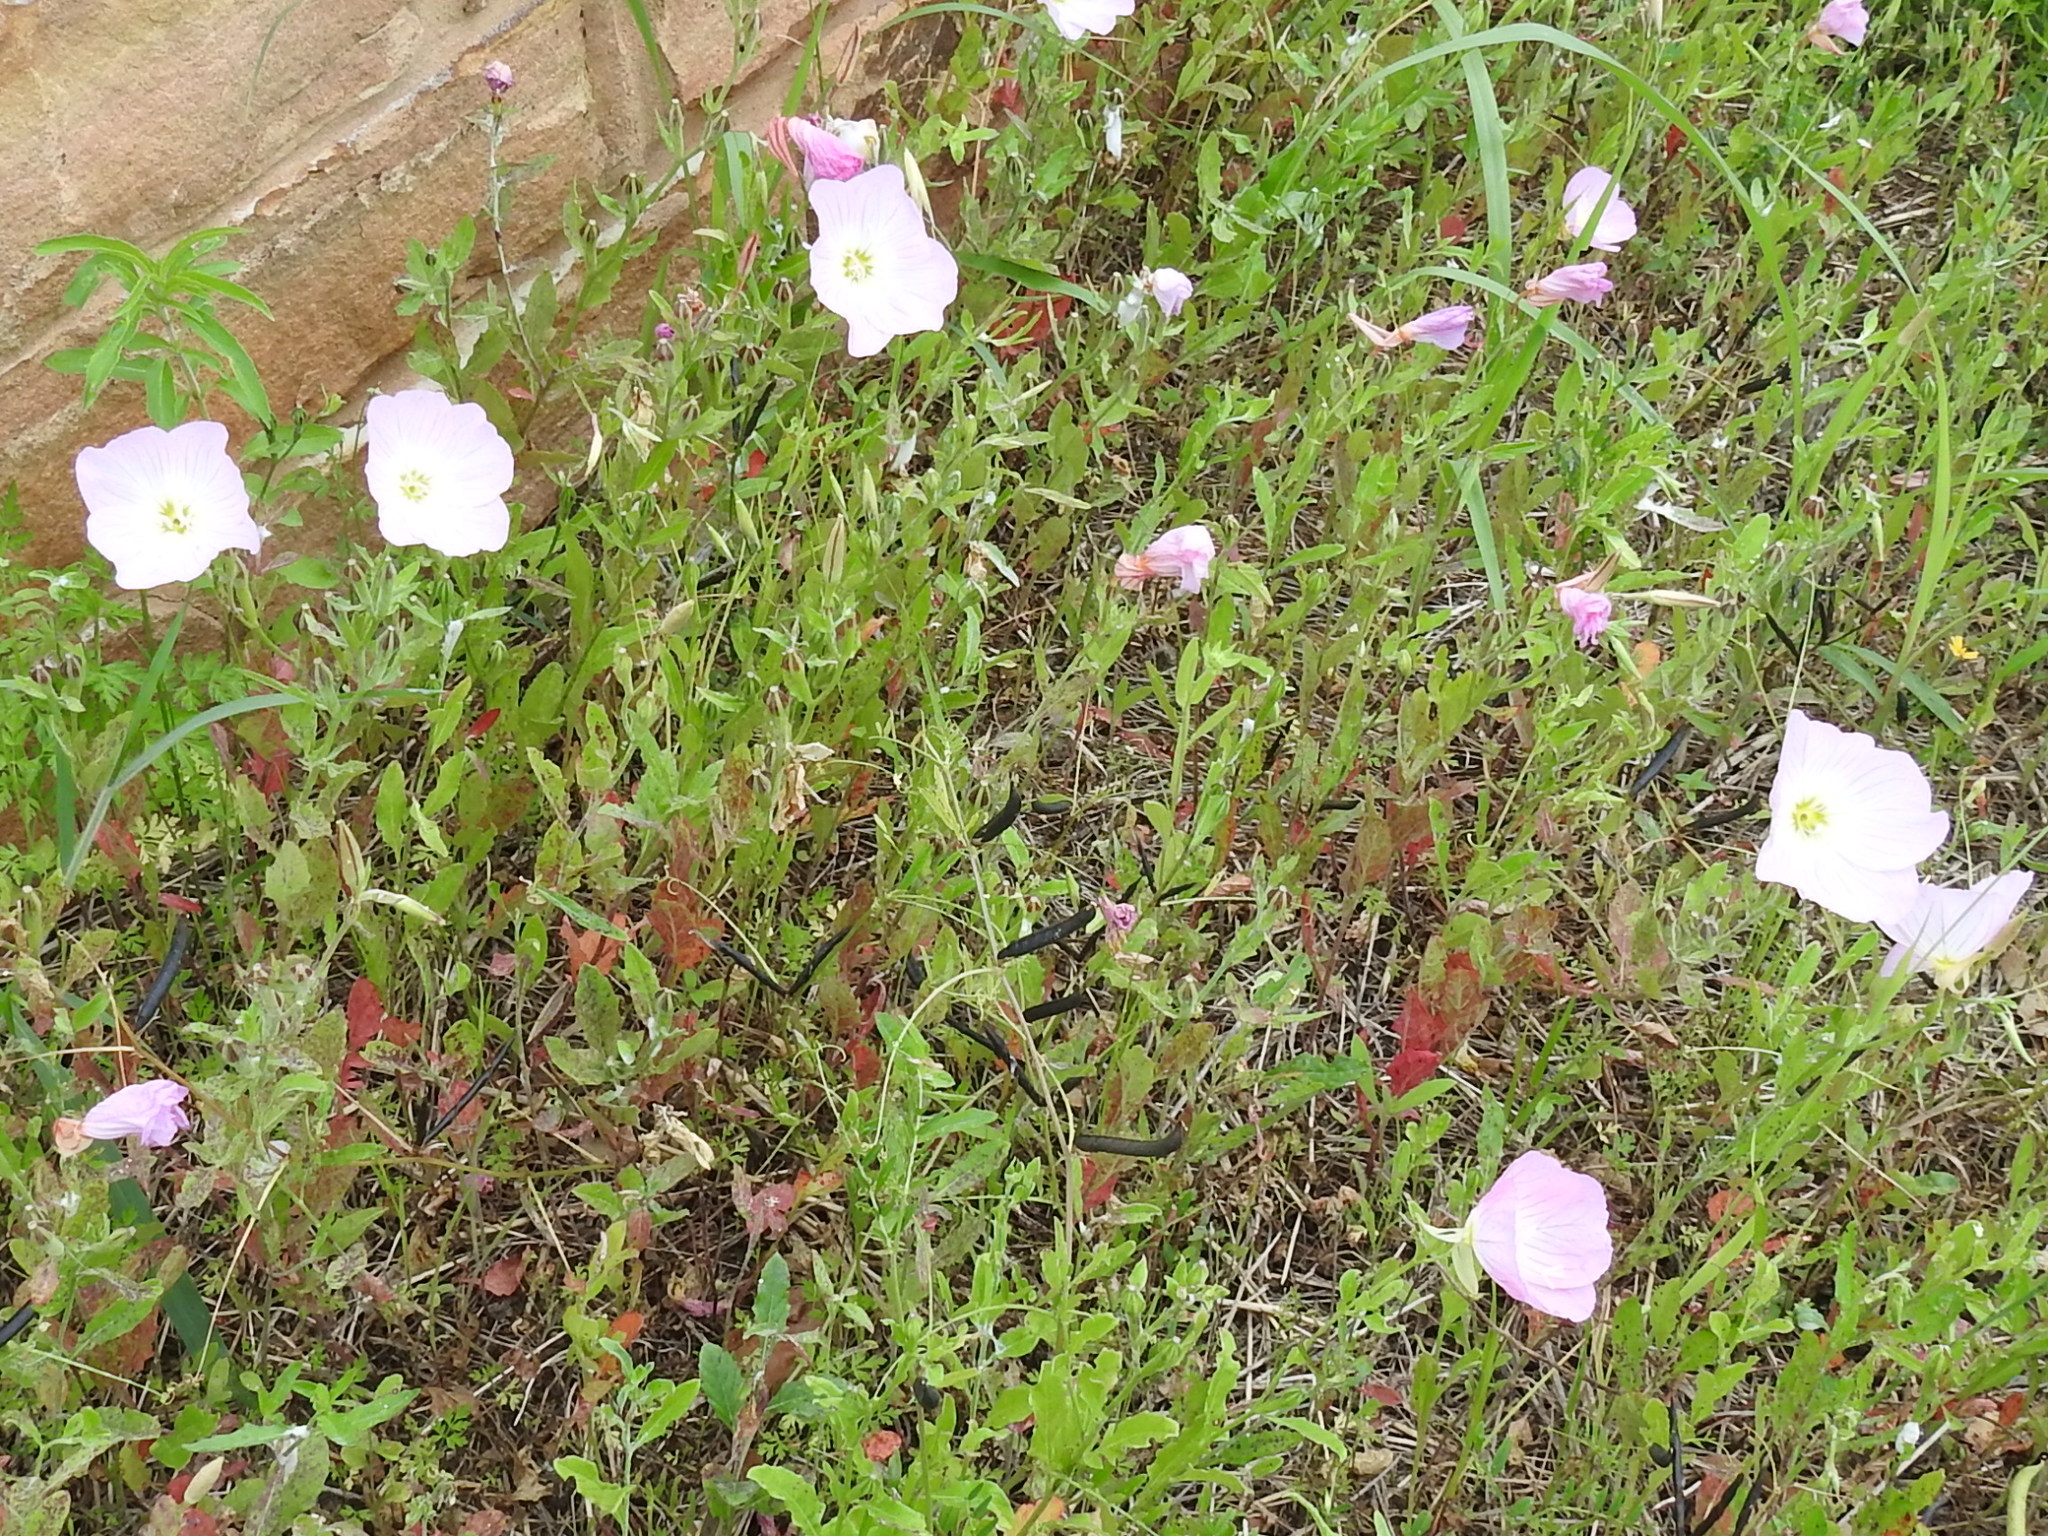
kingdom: Plantae
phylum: Tracheophyta
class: Magnoliopsida
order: Myrtales
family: Onagraceae
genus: Oenothera
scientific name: Oenothera speciosa
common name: White evening-primrose
